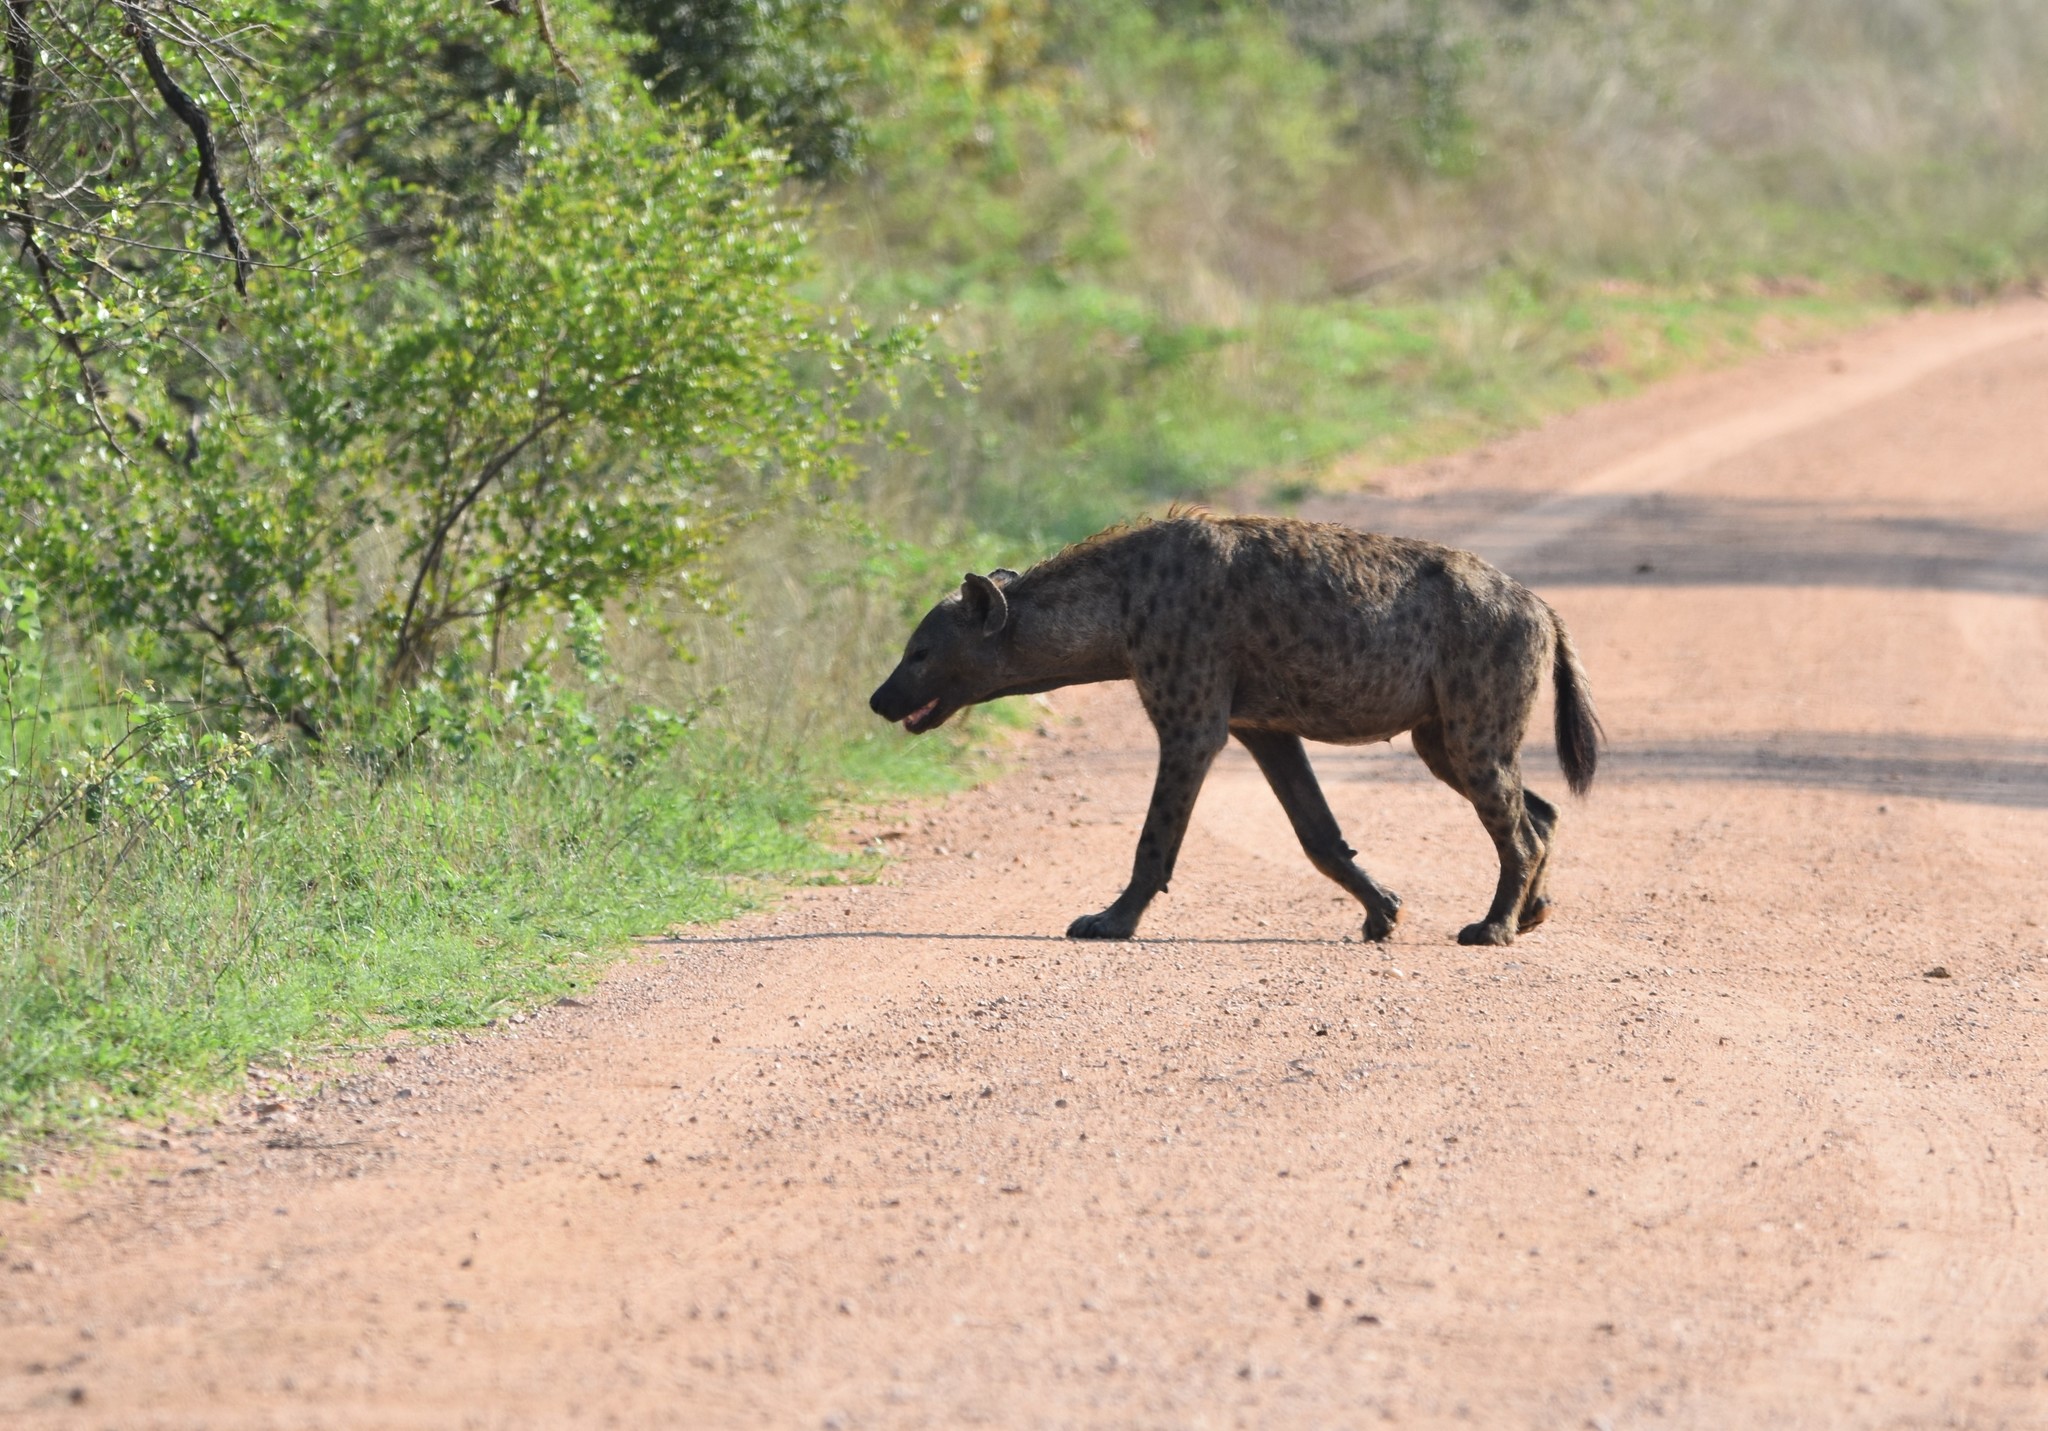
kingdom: Animalia
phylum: Chordata
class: Mammalia
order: Carnivora
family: Hyaenidae
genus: Crocuta
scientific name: Crocuta crocuta
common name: Spotted hyaena
